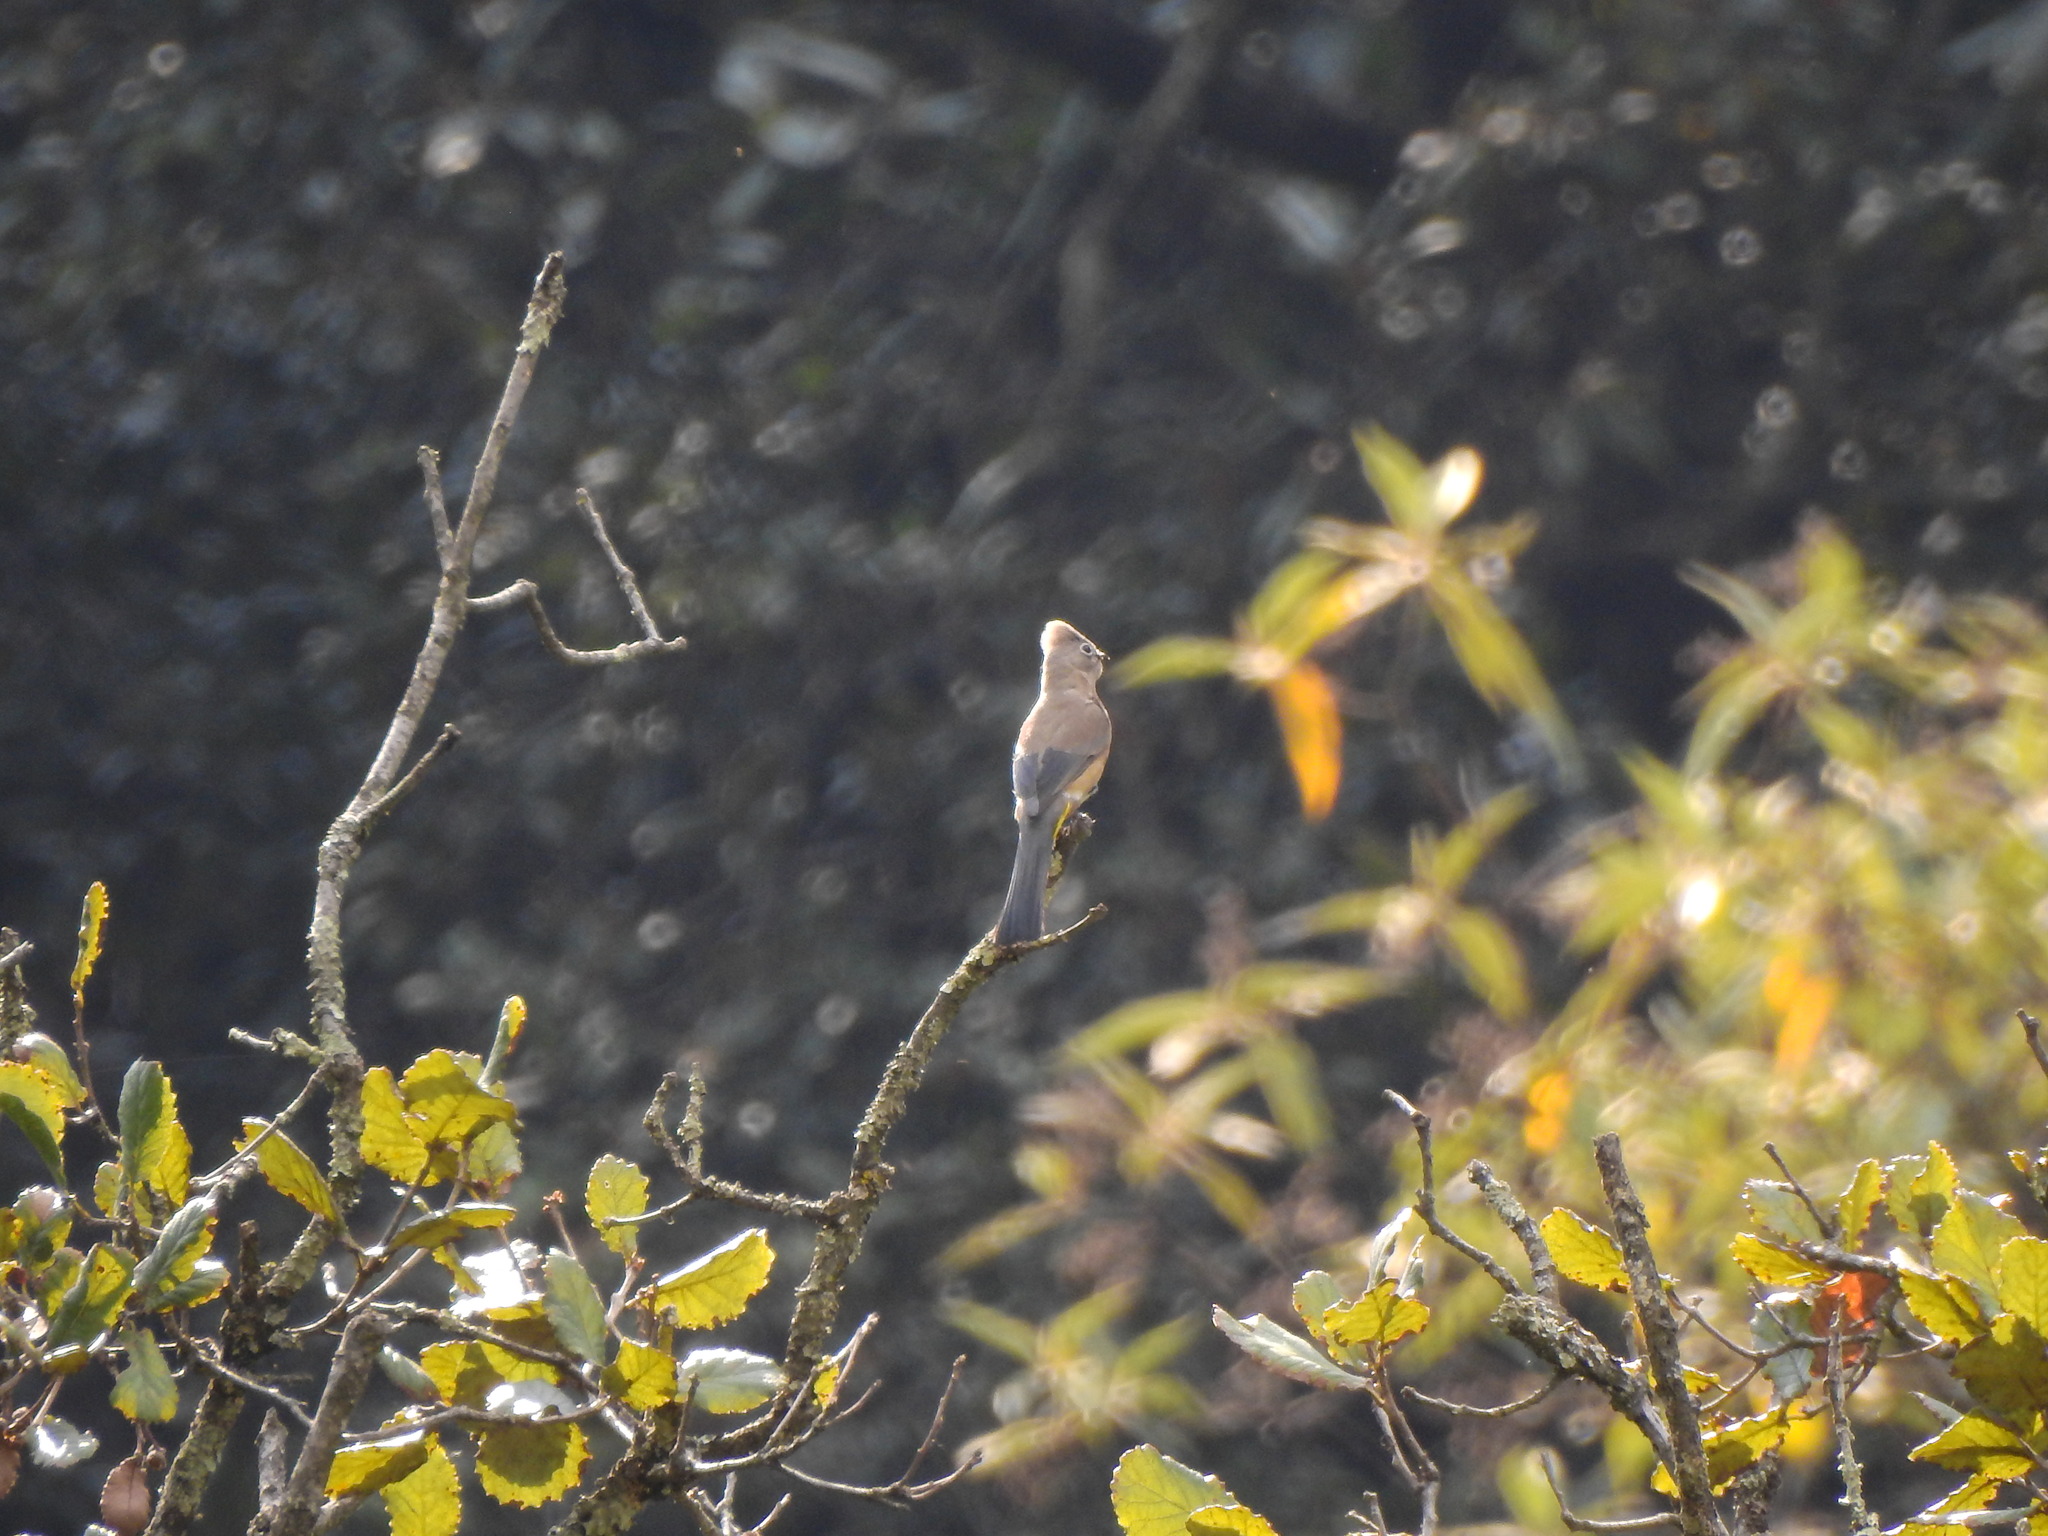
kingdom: Animalia
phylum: Chordata
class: Aves
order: Passeriformes
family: Ptilogonatidae
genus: Ptilogonys
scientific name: Ptilogonys cinereus
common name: Gray silky-flycatcher
